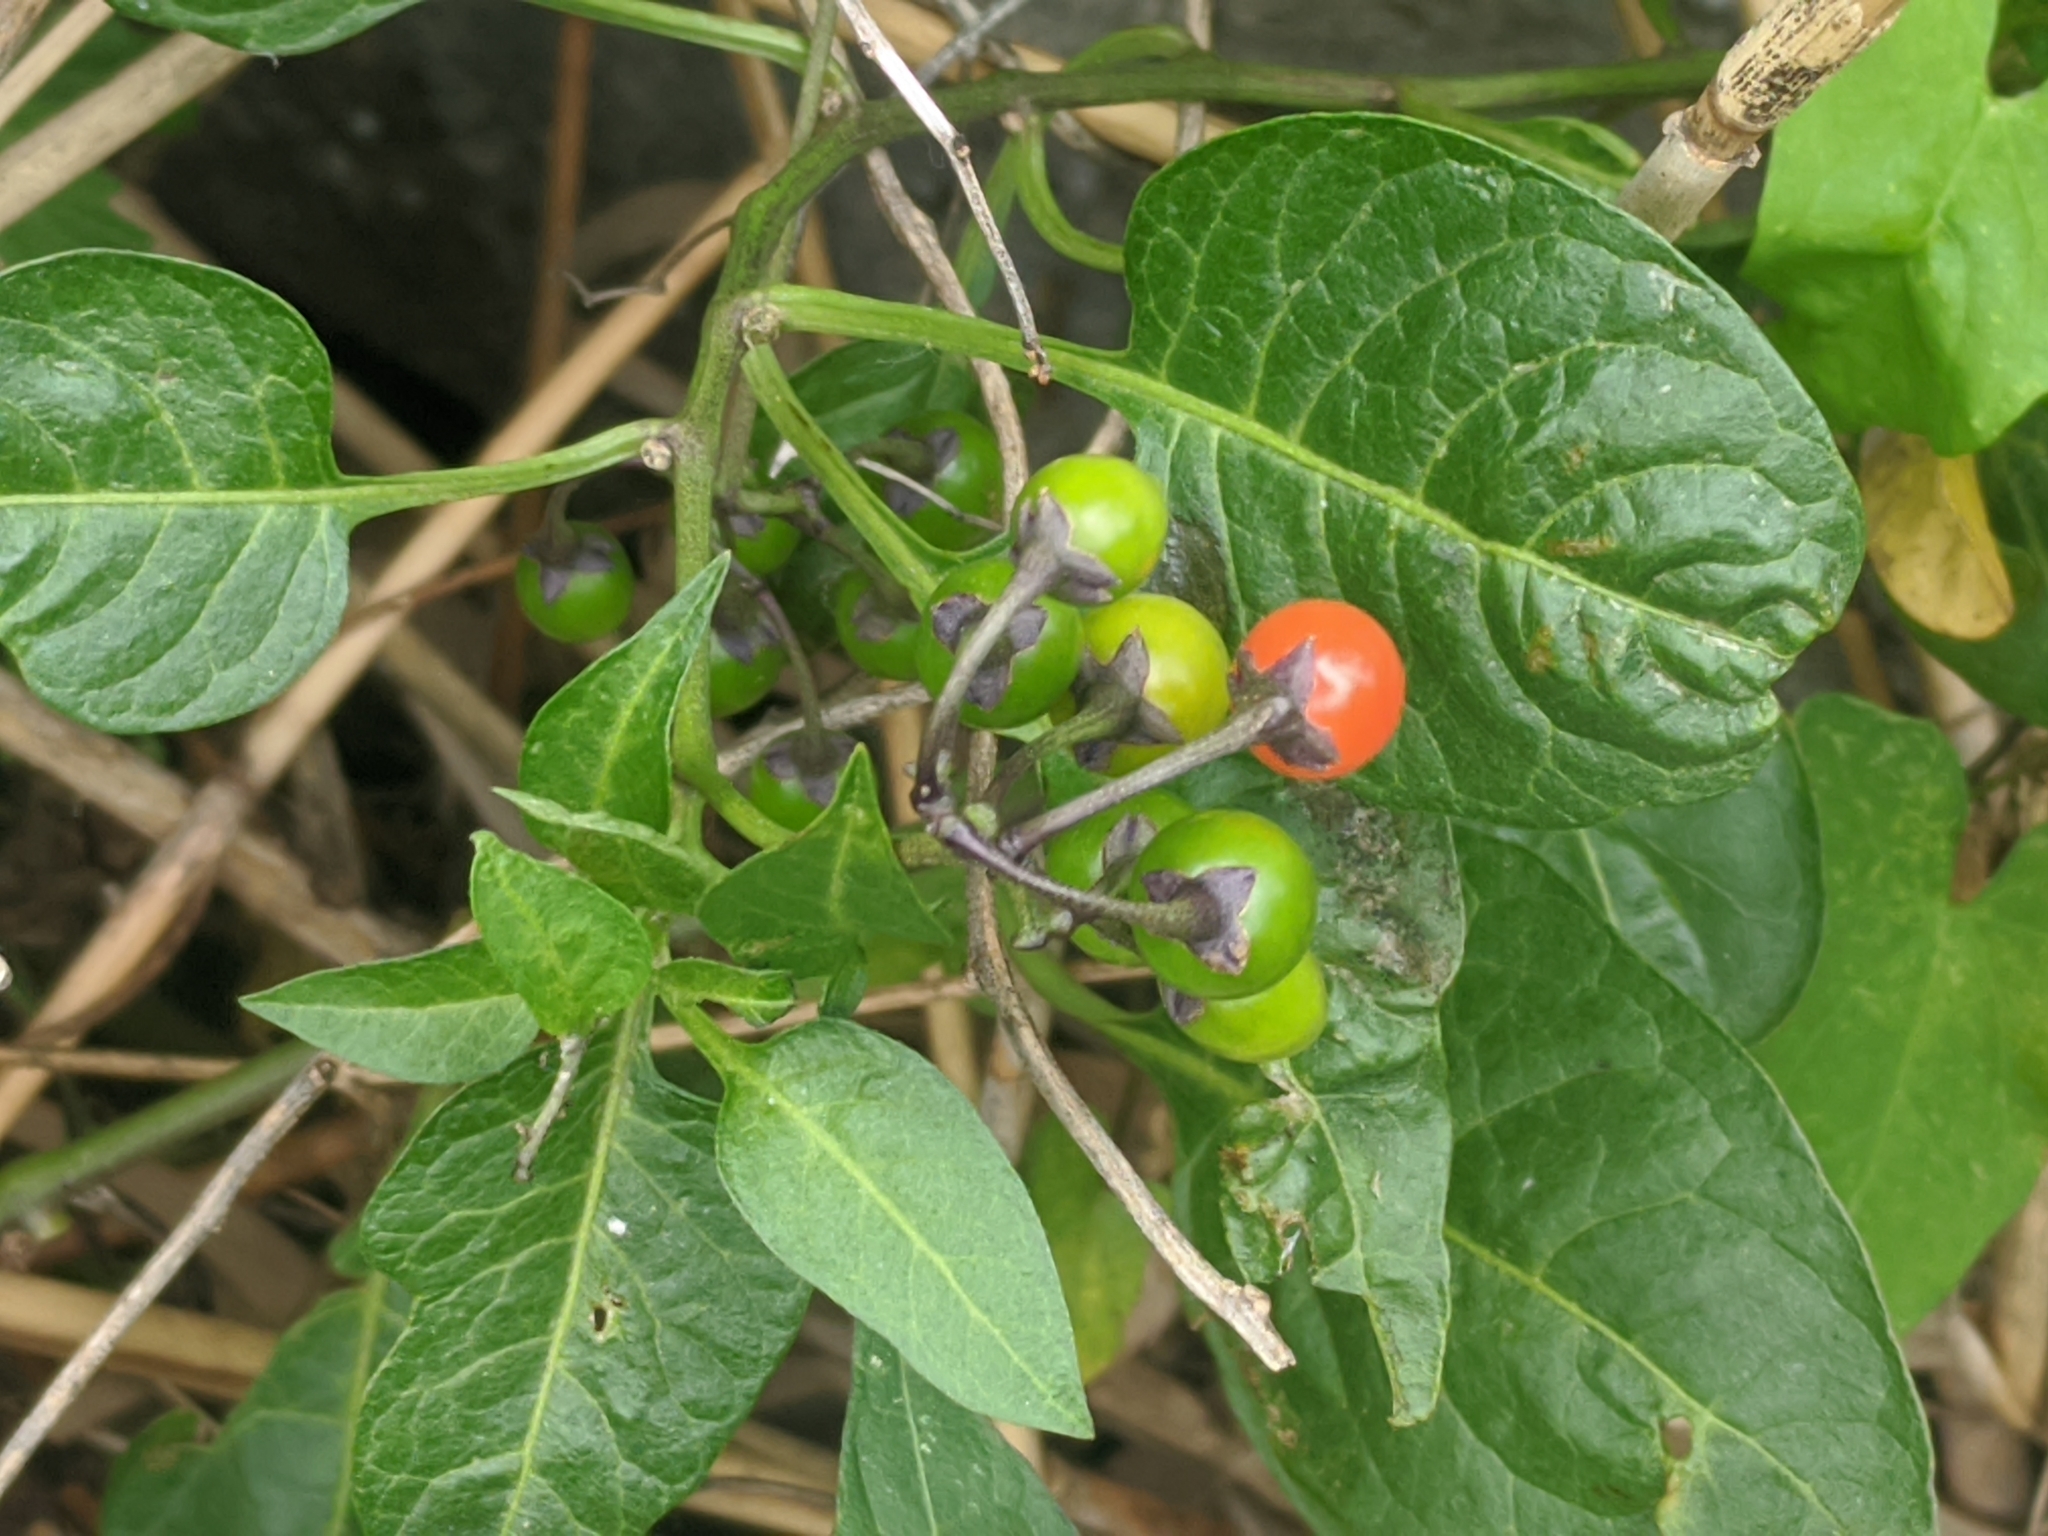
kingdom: Plantae
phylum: Tracheophyta
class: Magnoliopsida
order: Solanales
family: Solanaceae
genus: Solanum
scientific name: Solanum dulcamara
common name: Climbing nightshade
